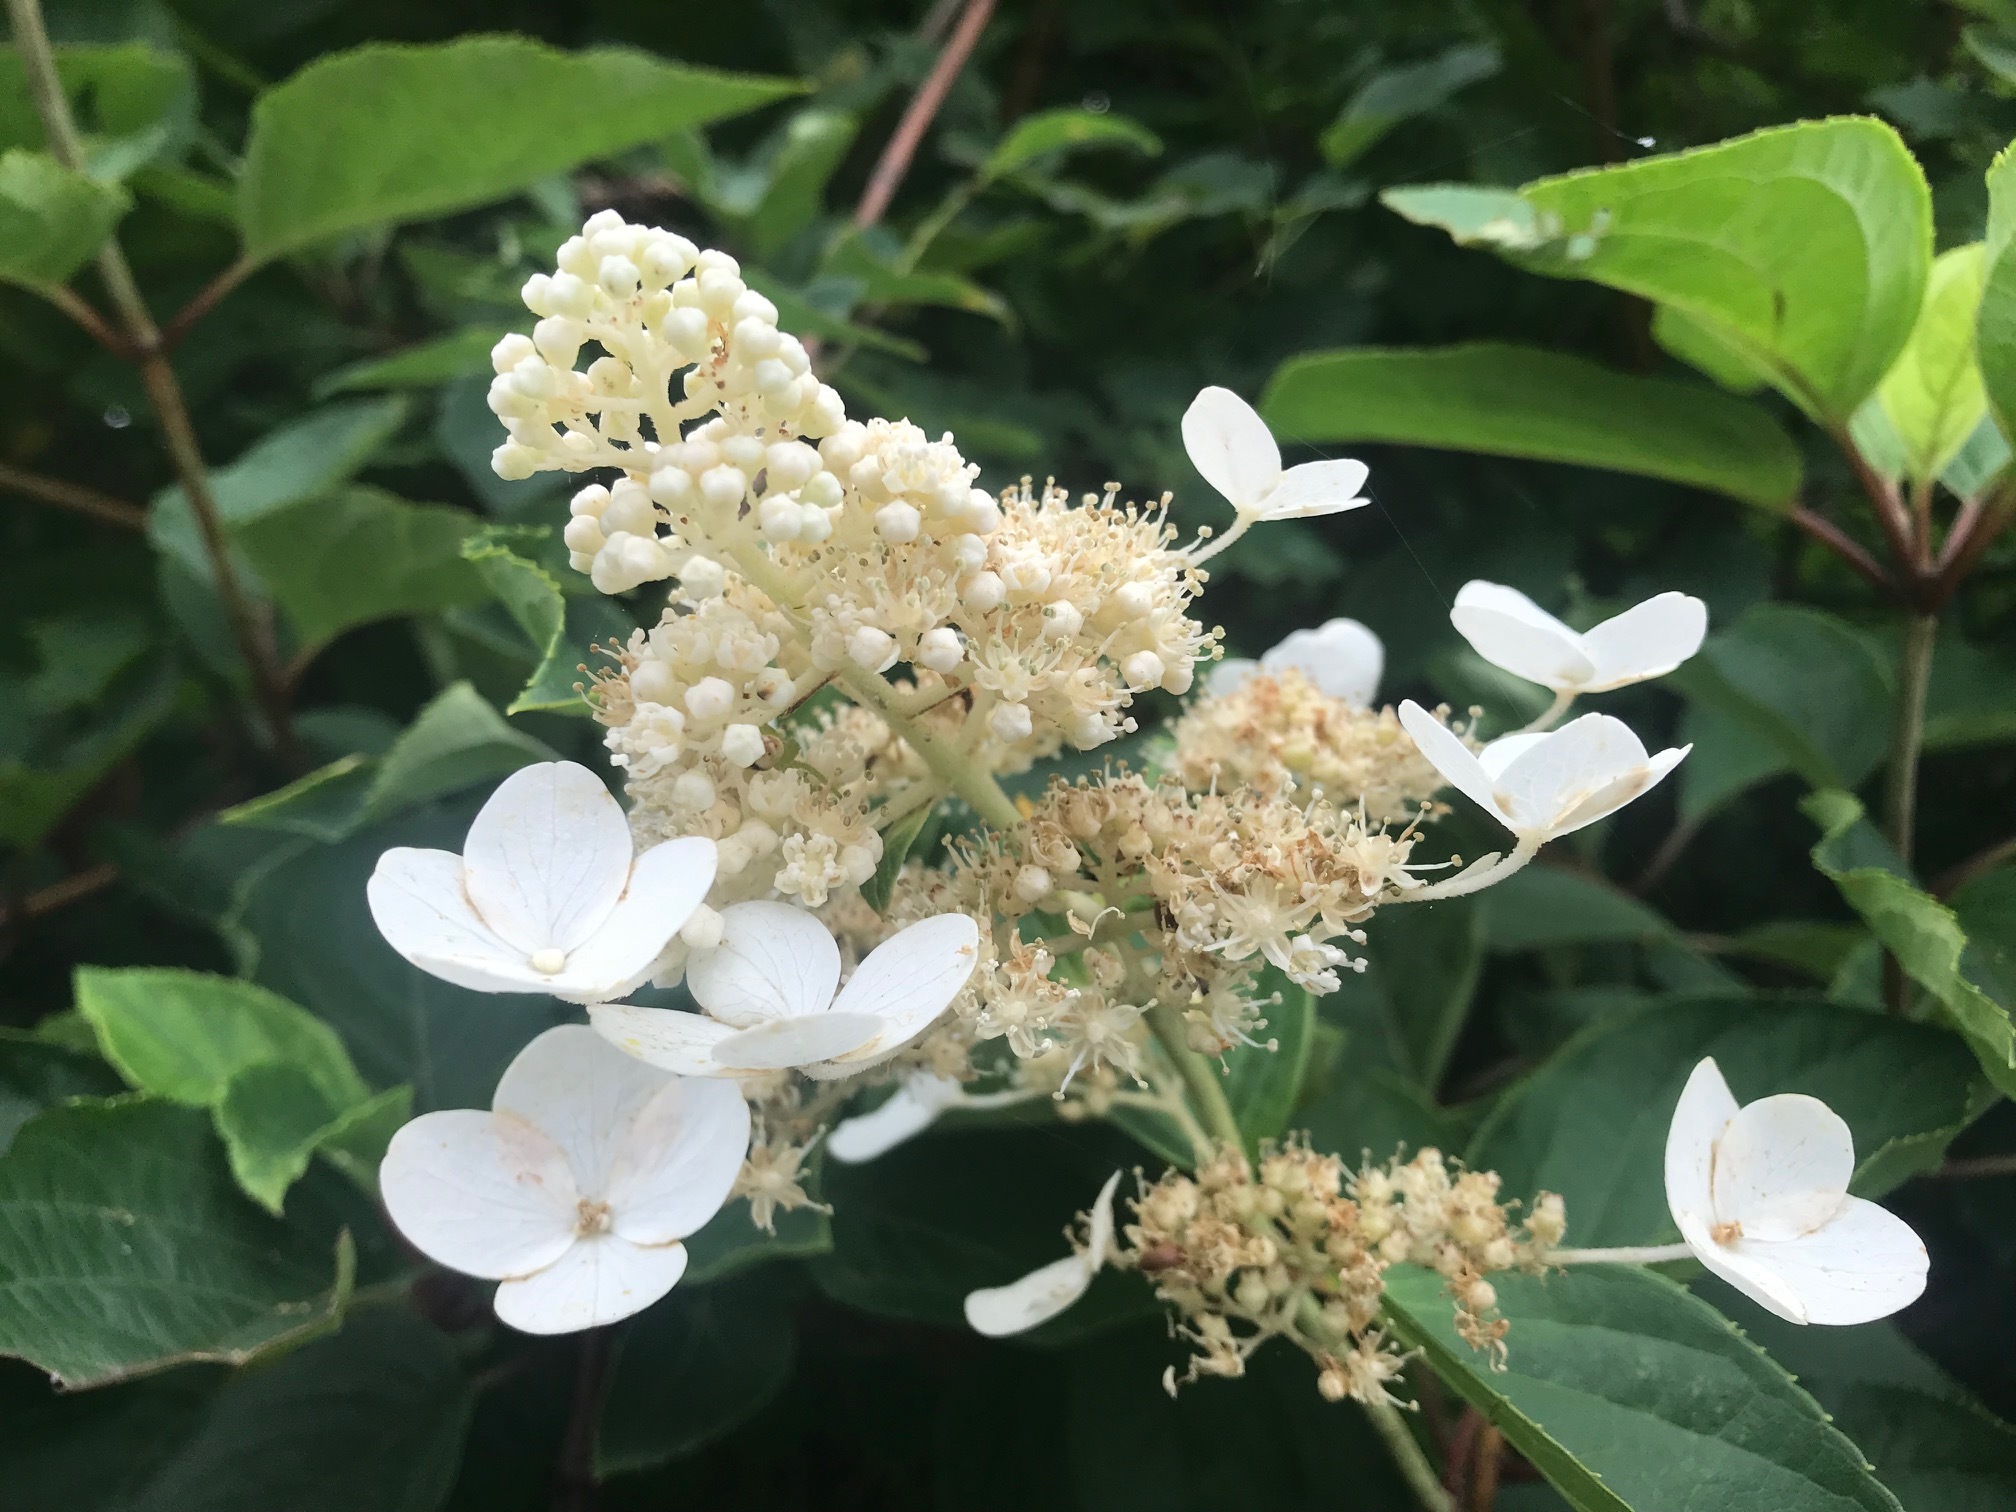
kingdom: Plantae
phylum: Tracheophyta
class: Magnoliopsida
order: Cornales
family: Hydrangeaceae
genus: Hydrangea
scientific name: Hydrangea paniculata
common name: Panicled hydrangea
